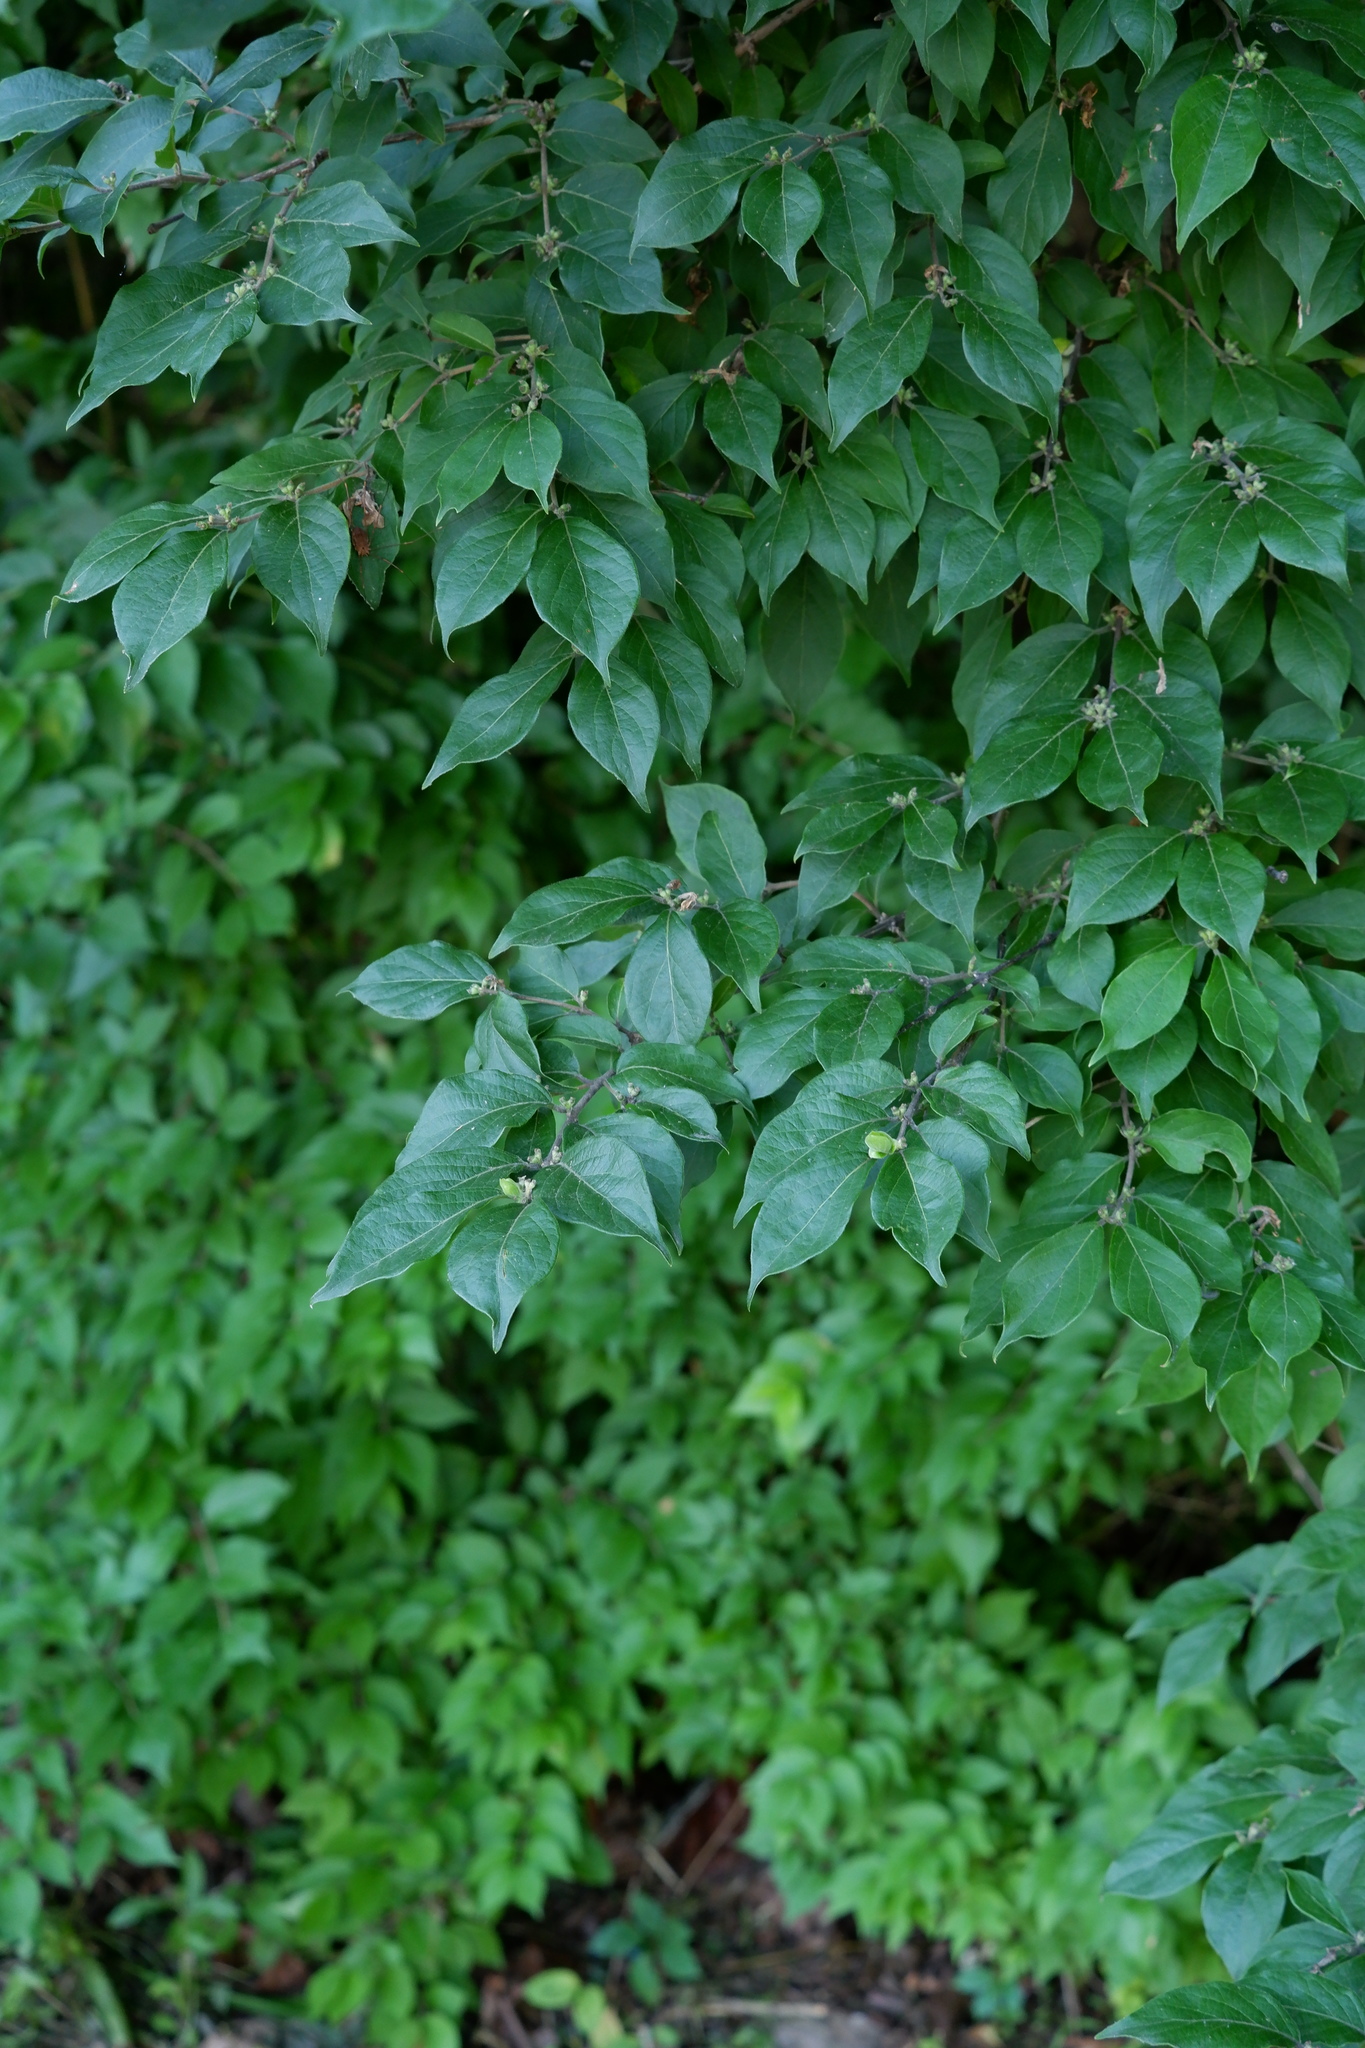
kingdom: Plantae
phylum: Tracheophyta
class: Magnoliopsida
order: Dipsacales
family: Caprifoliaceae
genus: Lonicera
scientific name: Lonicera maackii
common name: Amur honeysuckle
